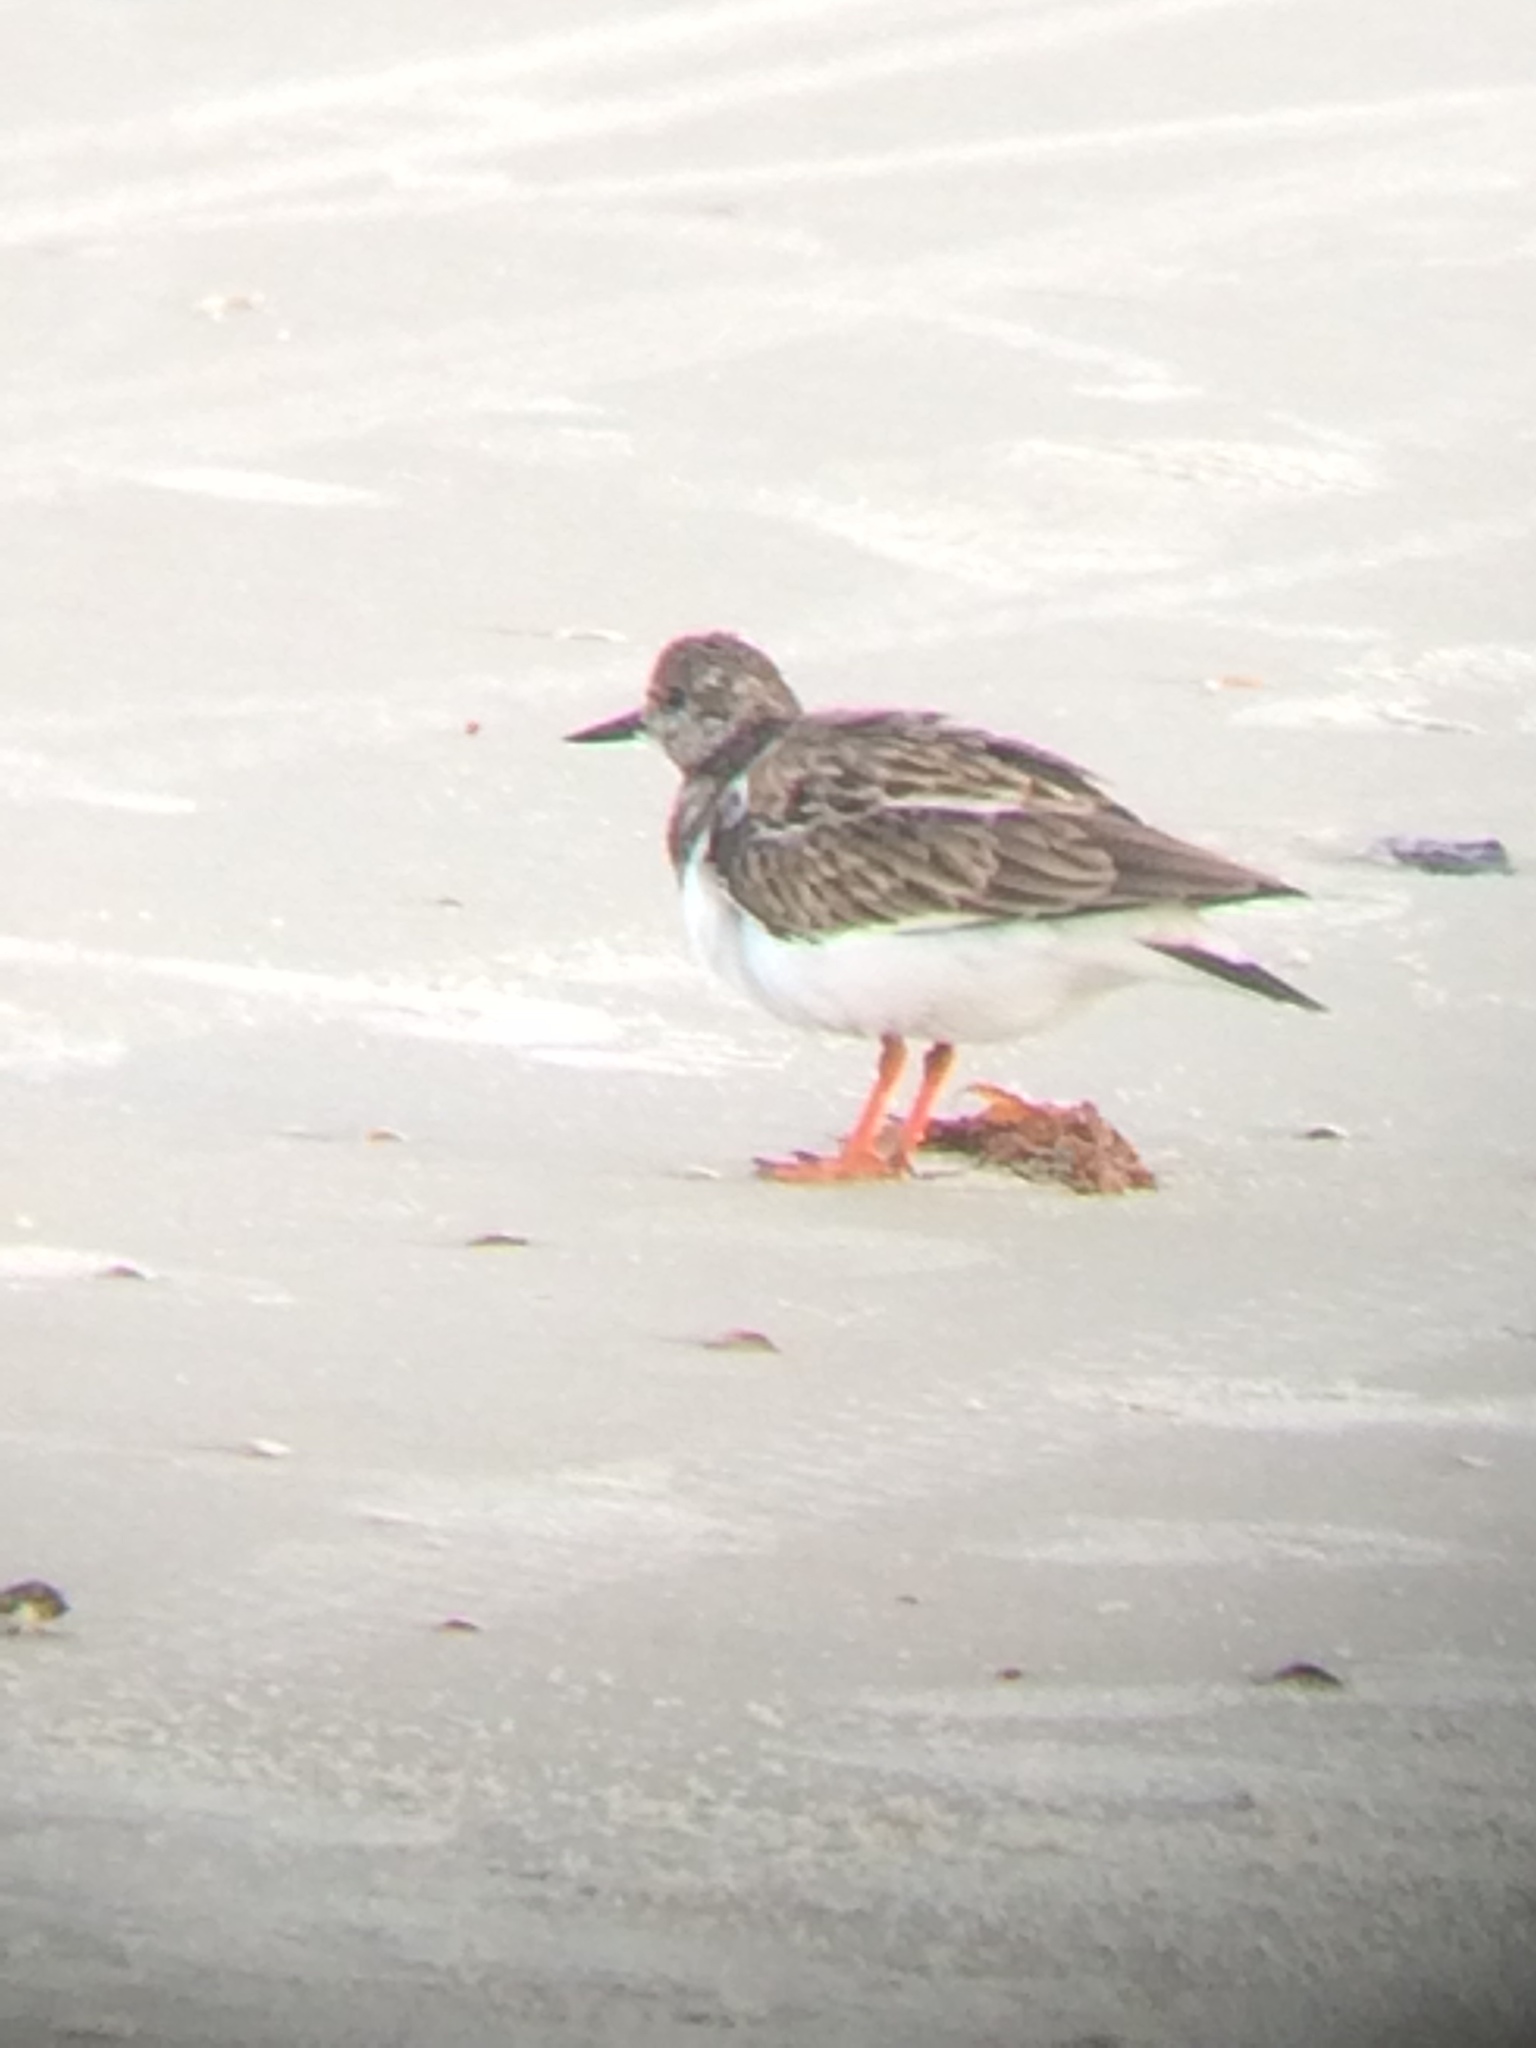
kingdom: Animalia
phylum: Chordata
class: Aves
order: Charadriiformes
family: Scolopacidae
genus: Arenaria
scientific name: Arenaria interpres
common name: Ruddy turnstone
